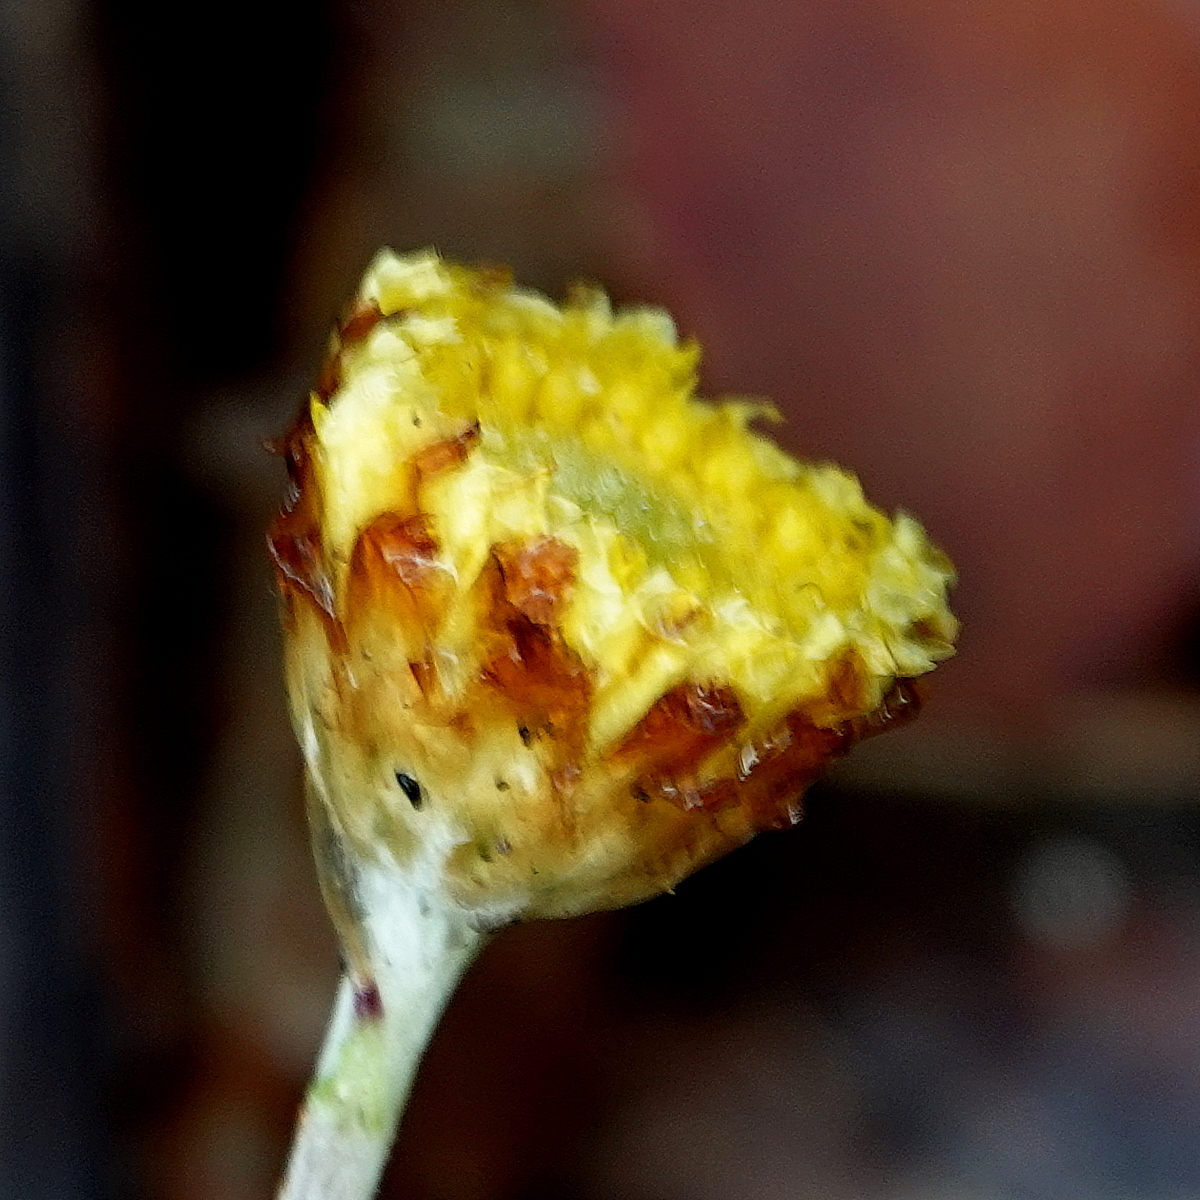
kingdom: Plantae
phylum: Tracheophyta
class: Magnoliopsida
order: Asterales
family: Asteraceae
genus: Coronidium
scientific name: Coronidium scorpioides
